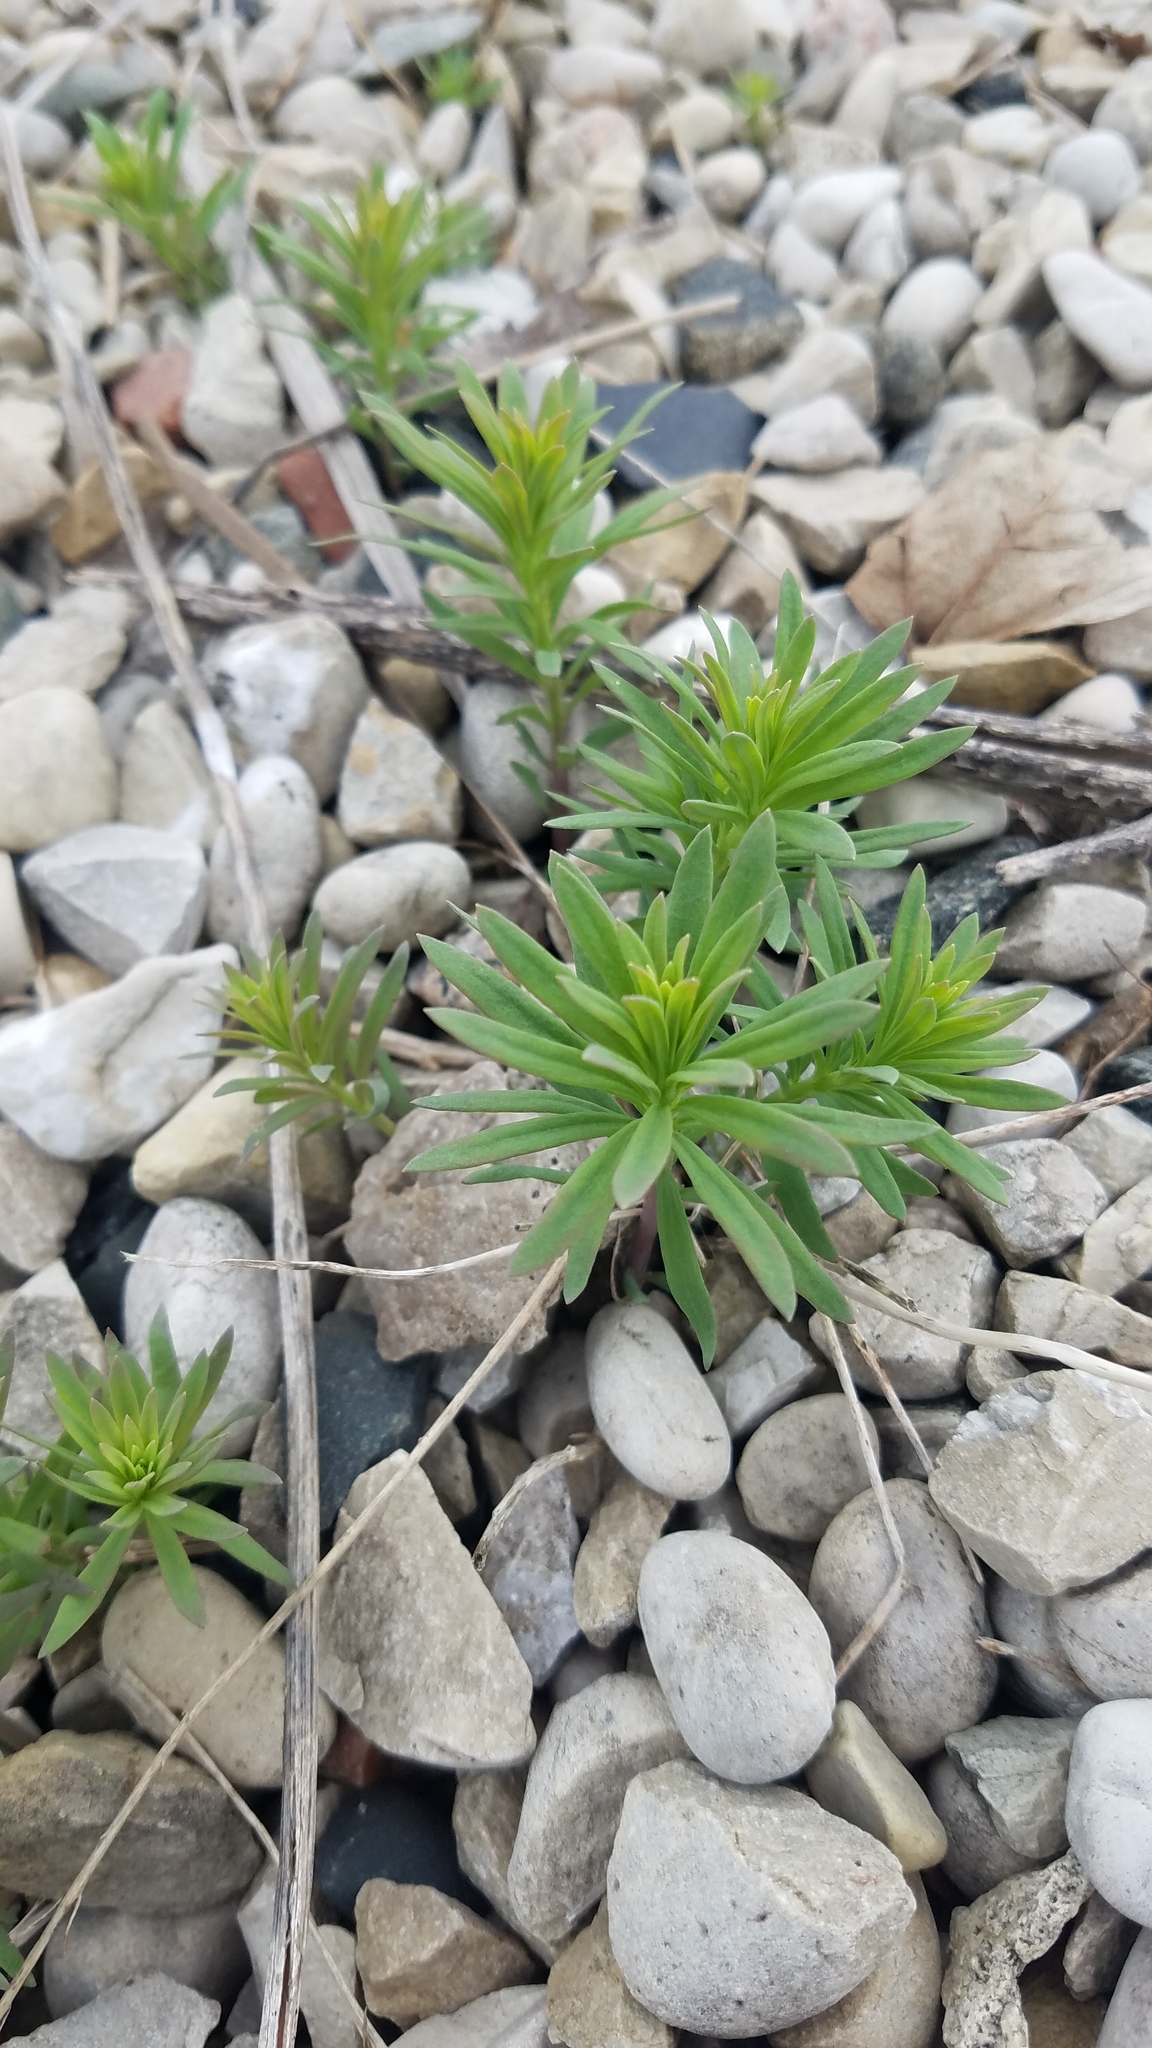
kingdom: Plantae
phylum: Tracheophyta
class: Magnoliopsida
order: Lamiales
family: Plantaginaceae
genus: Linaria
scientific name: Linaria vulgaris
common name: Butter and eggs
